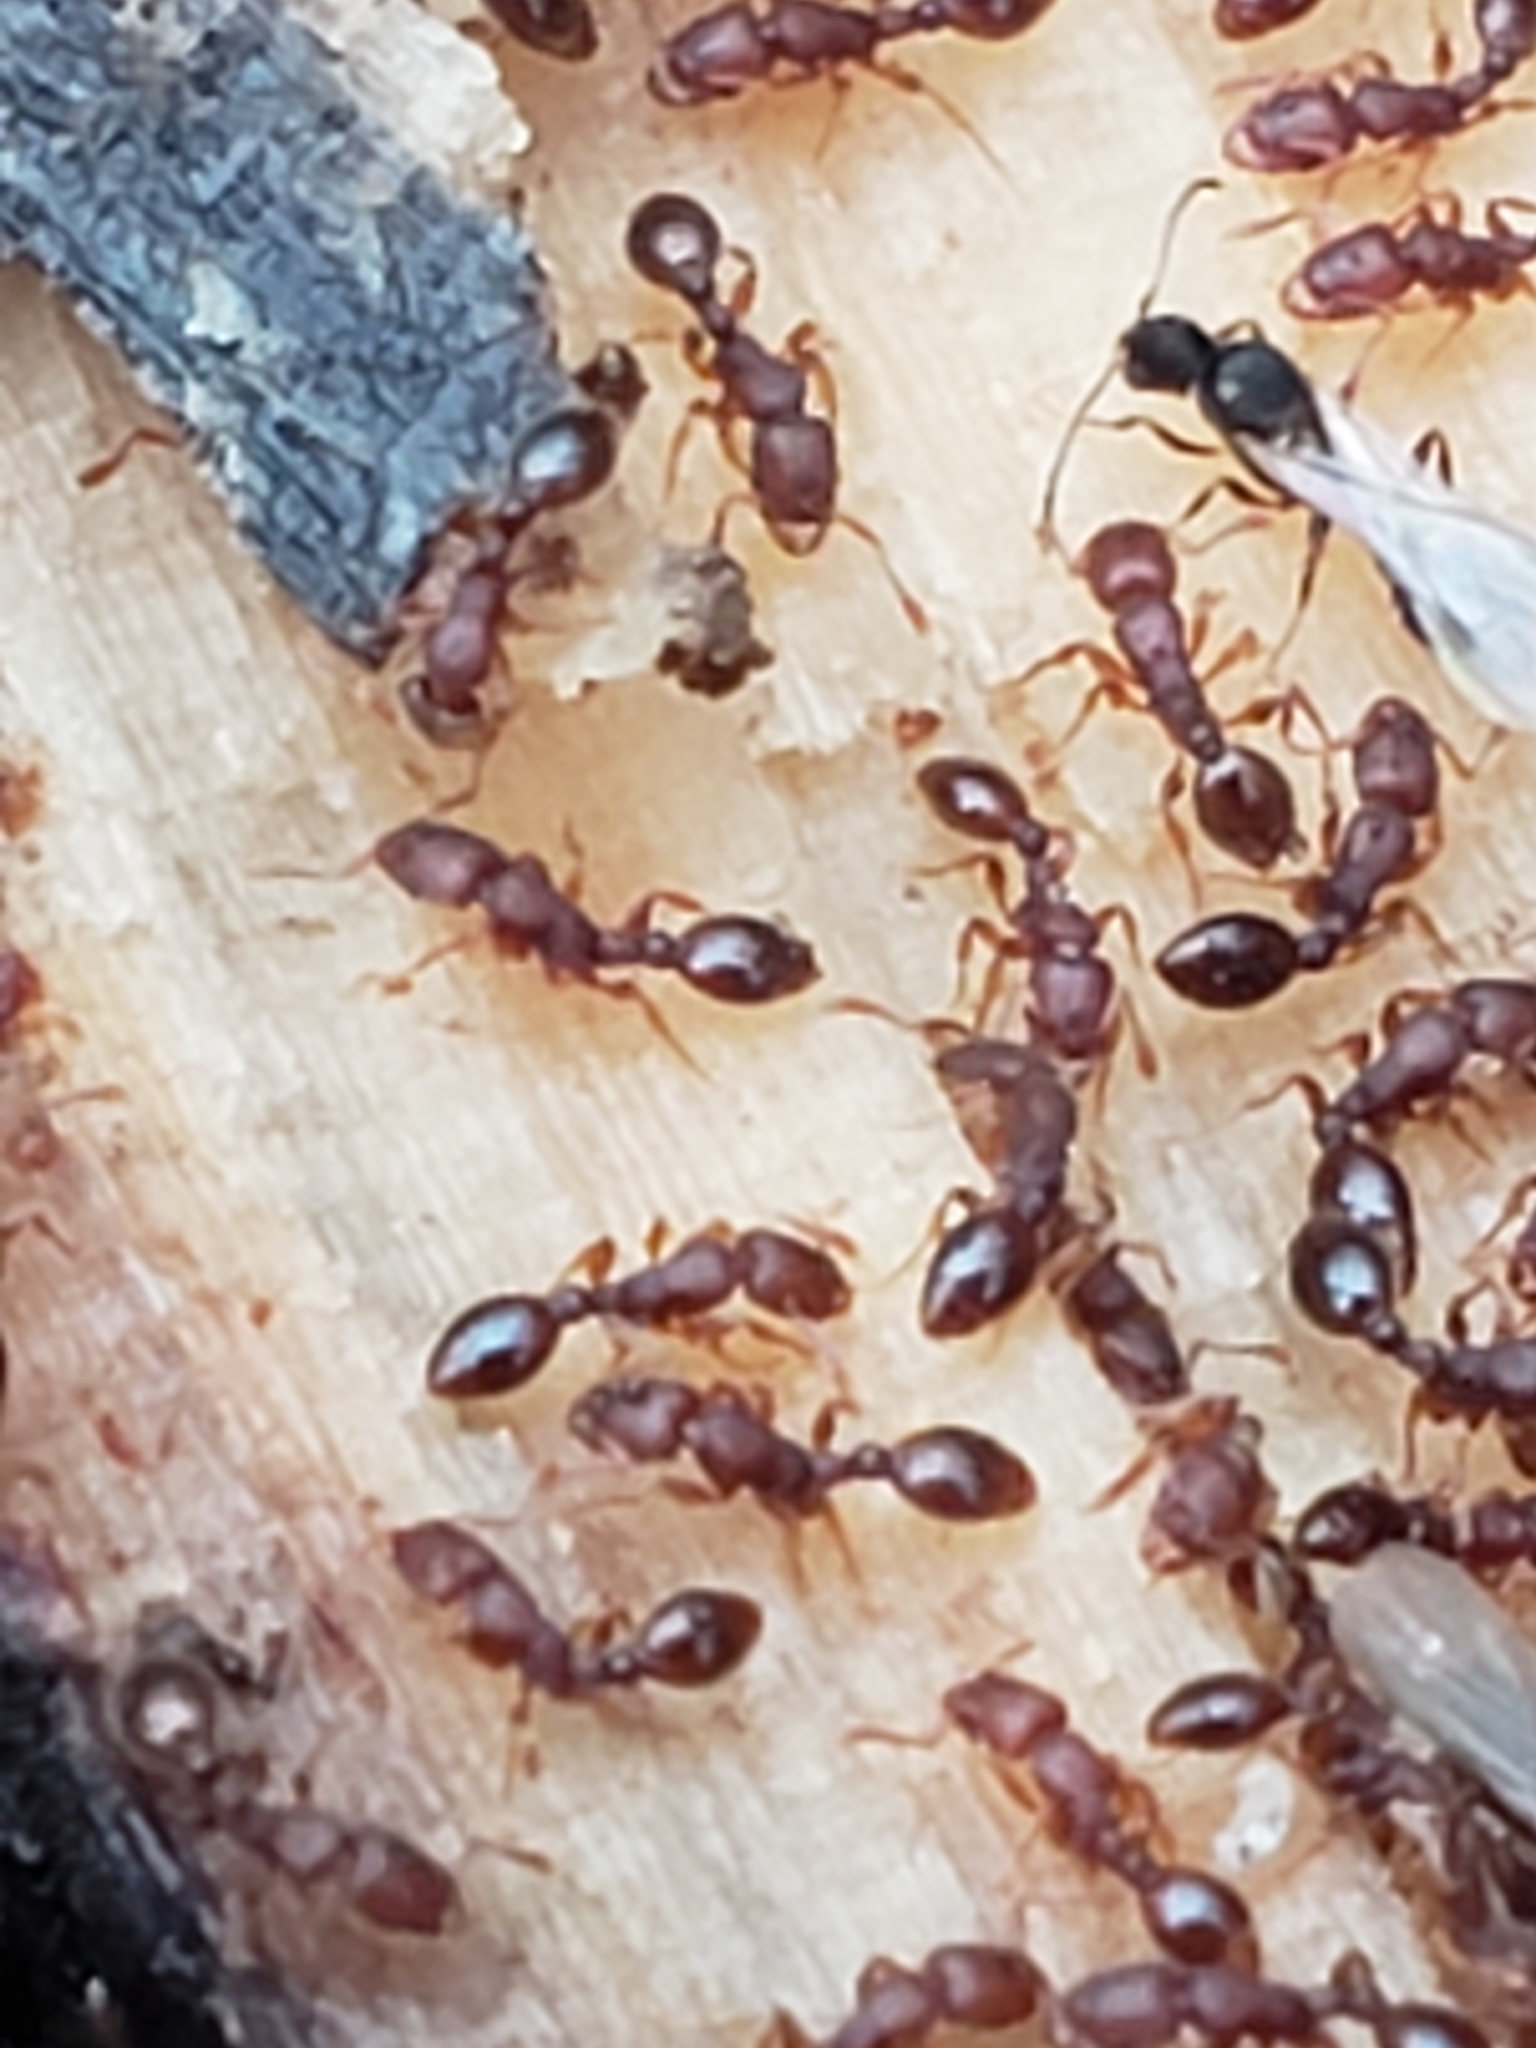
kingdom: Animalia
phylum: Arthropoda
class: Insecta
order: Hymenoptera
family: Formicidae
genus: Vollenhovia
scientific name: Vollenhovia emeryi
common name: Ant
